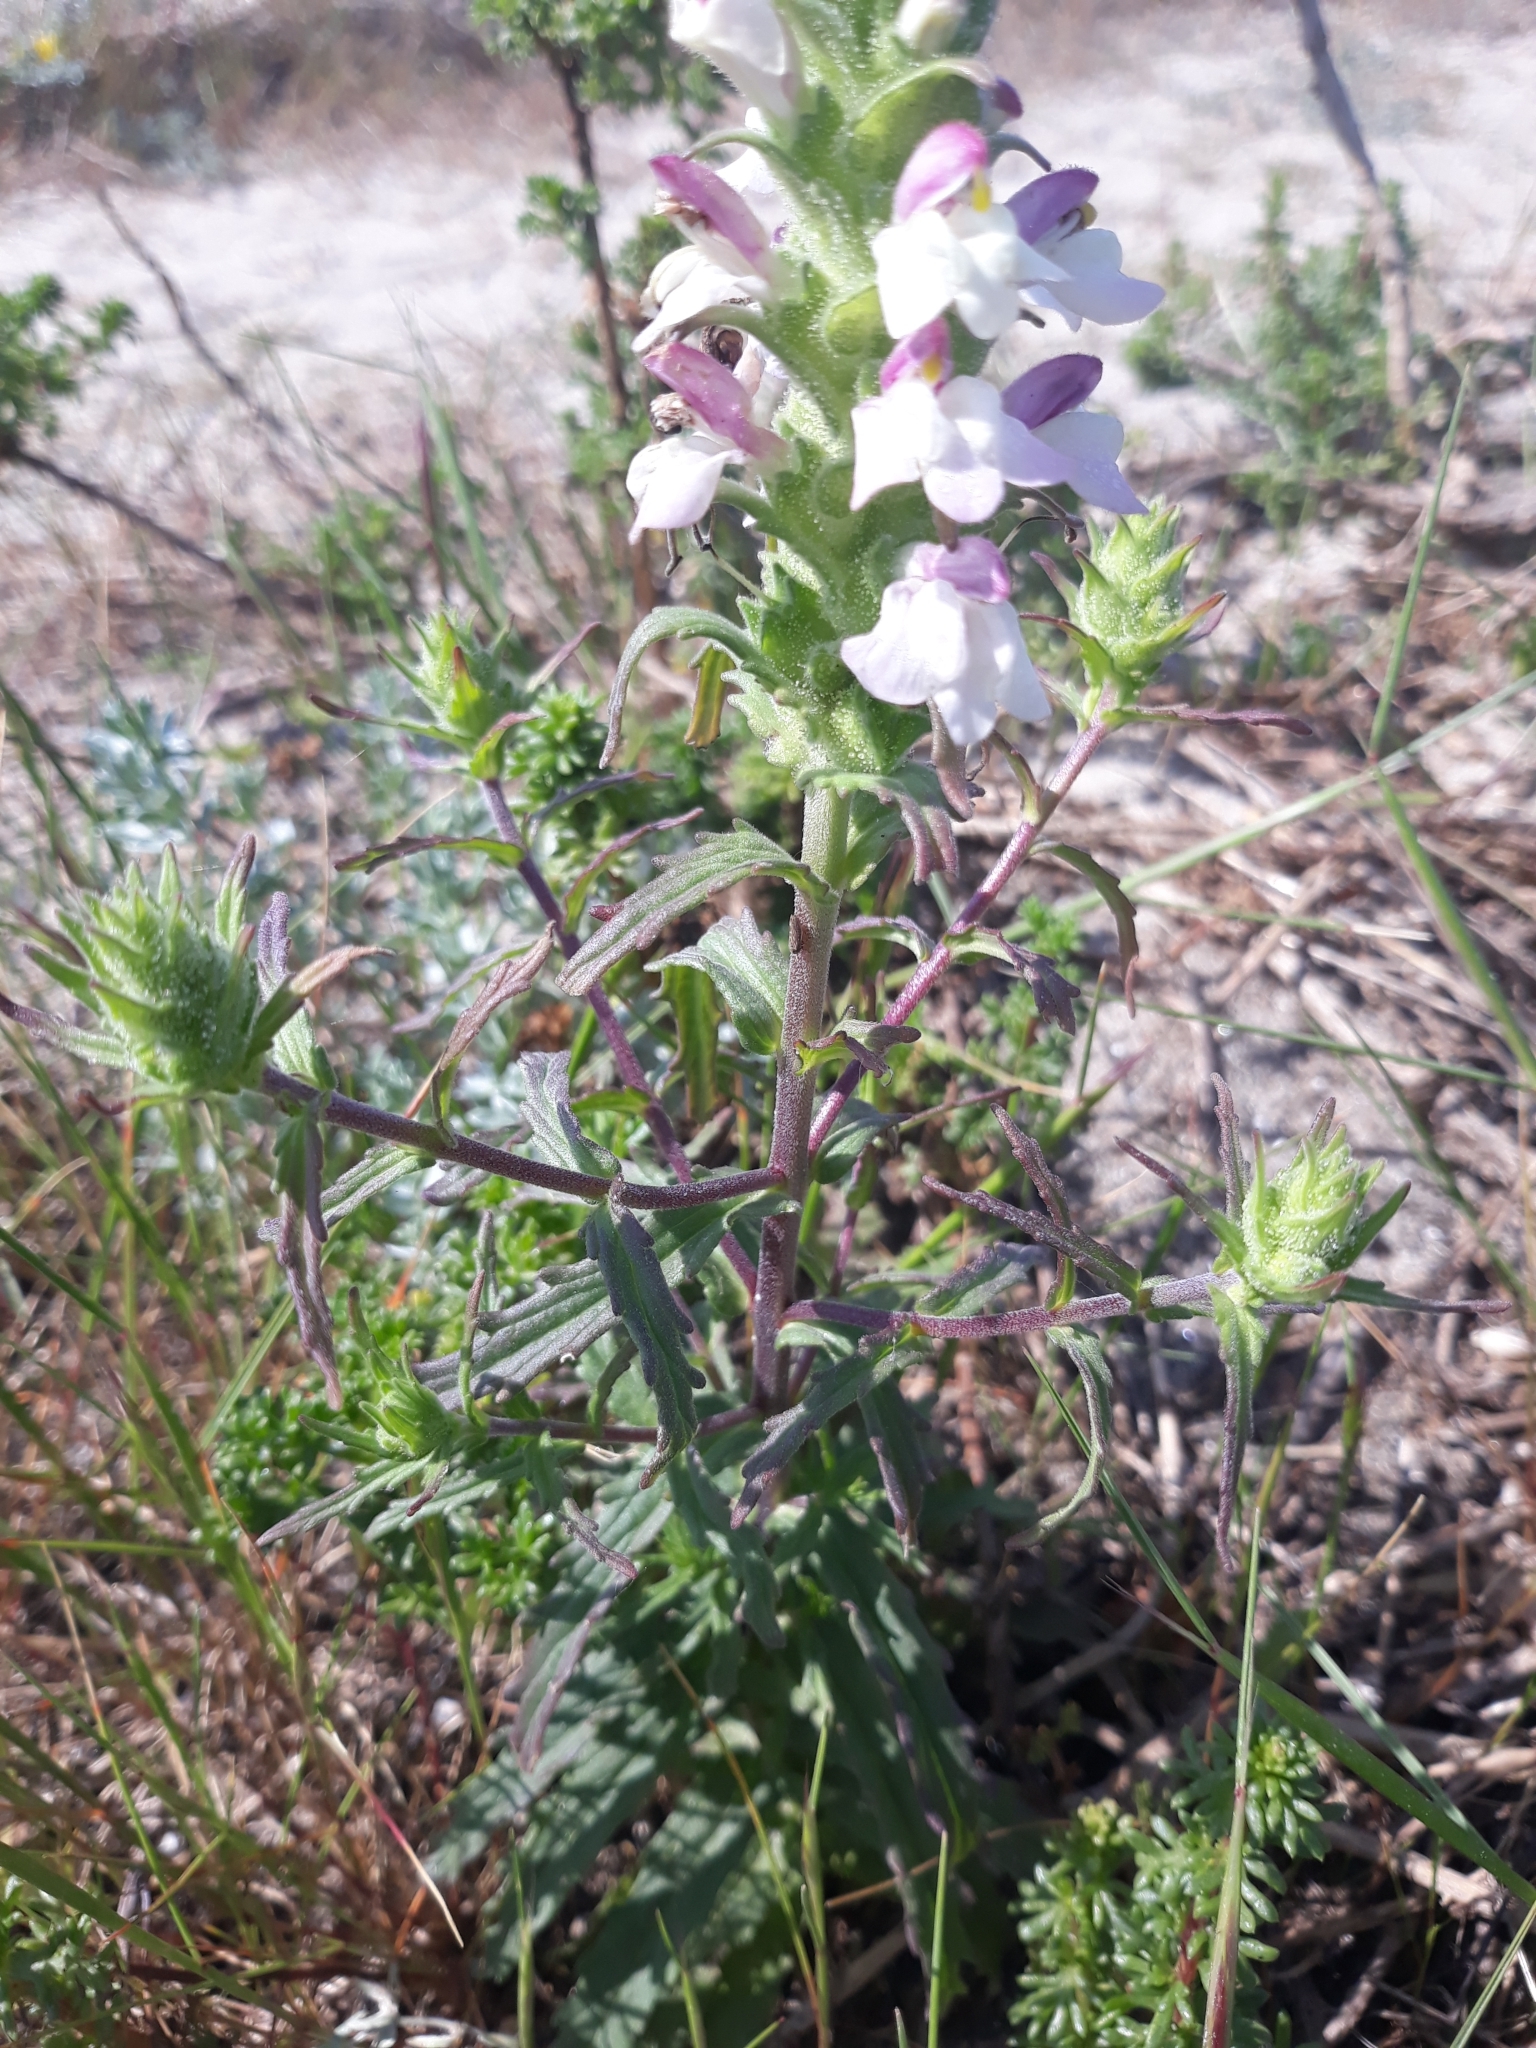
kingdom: Plantae
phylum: Tracheophyta
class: Magnoliopsida
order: Lamiales
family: Orobanchaceae
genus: Bellardia
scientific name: Bellardia trixago
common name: Mediterranean lineseed
